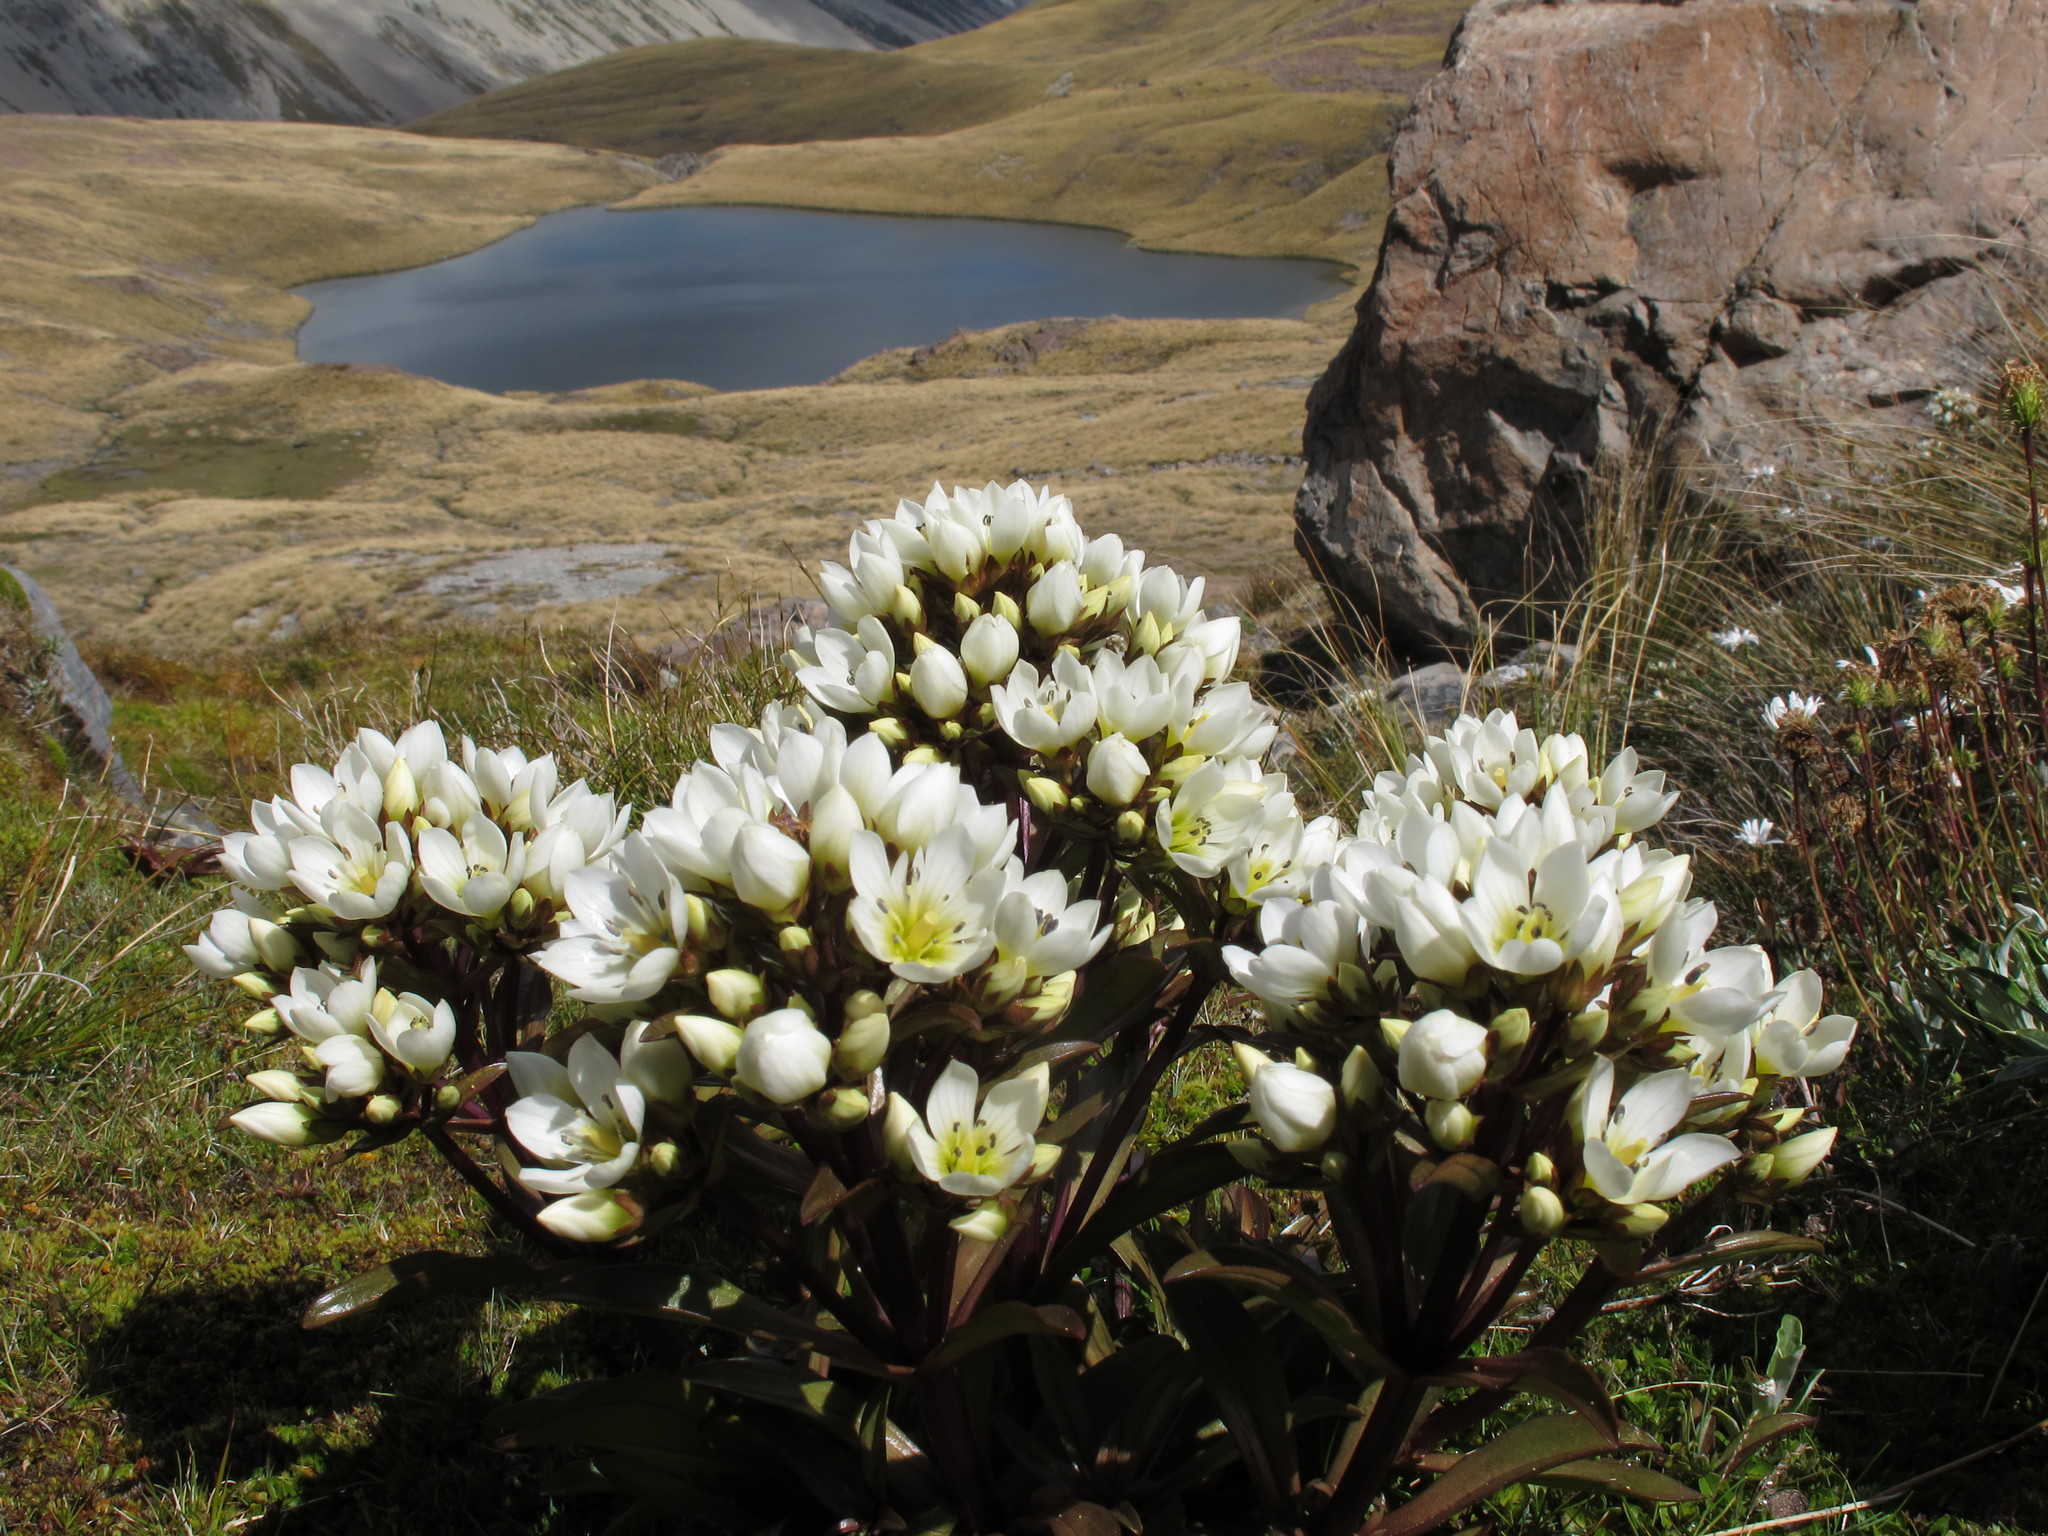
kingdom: Plantae
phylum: Tracheophyta
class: Magnoliopsida
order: Gentianales
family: Gentianaceae
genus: Gentianella
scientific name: Gentianella bellidifolia
